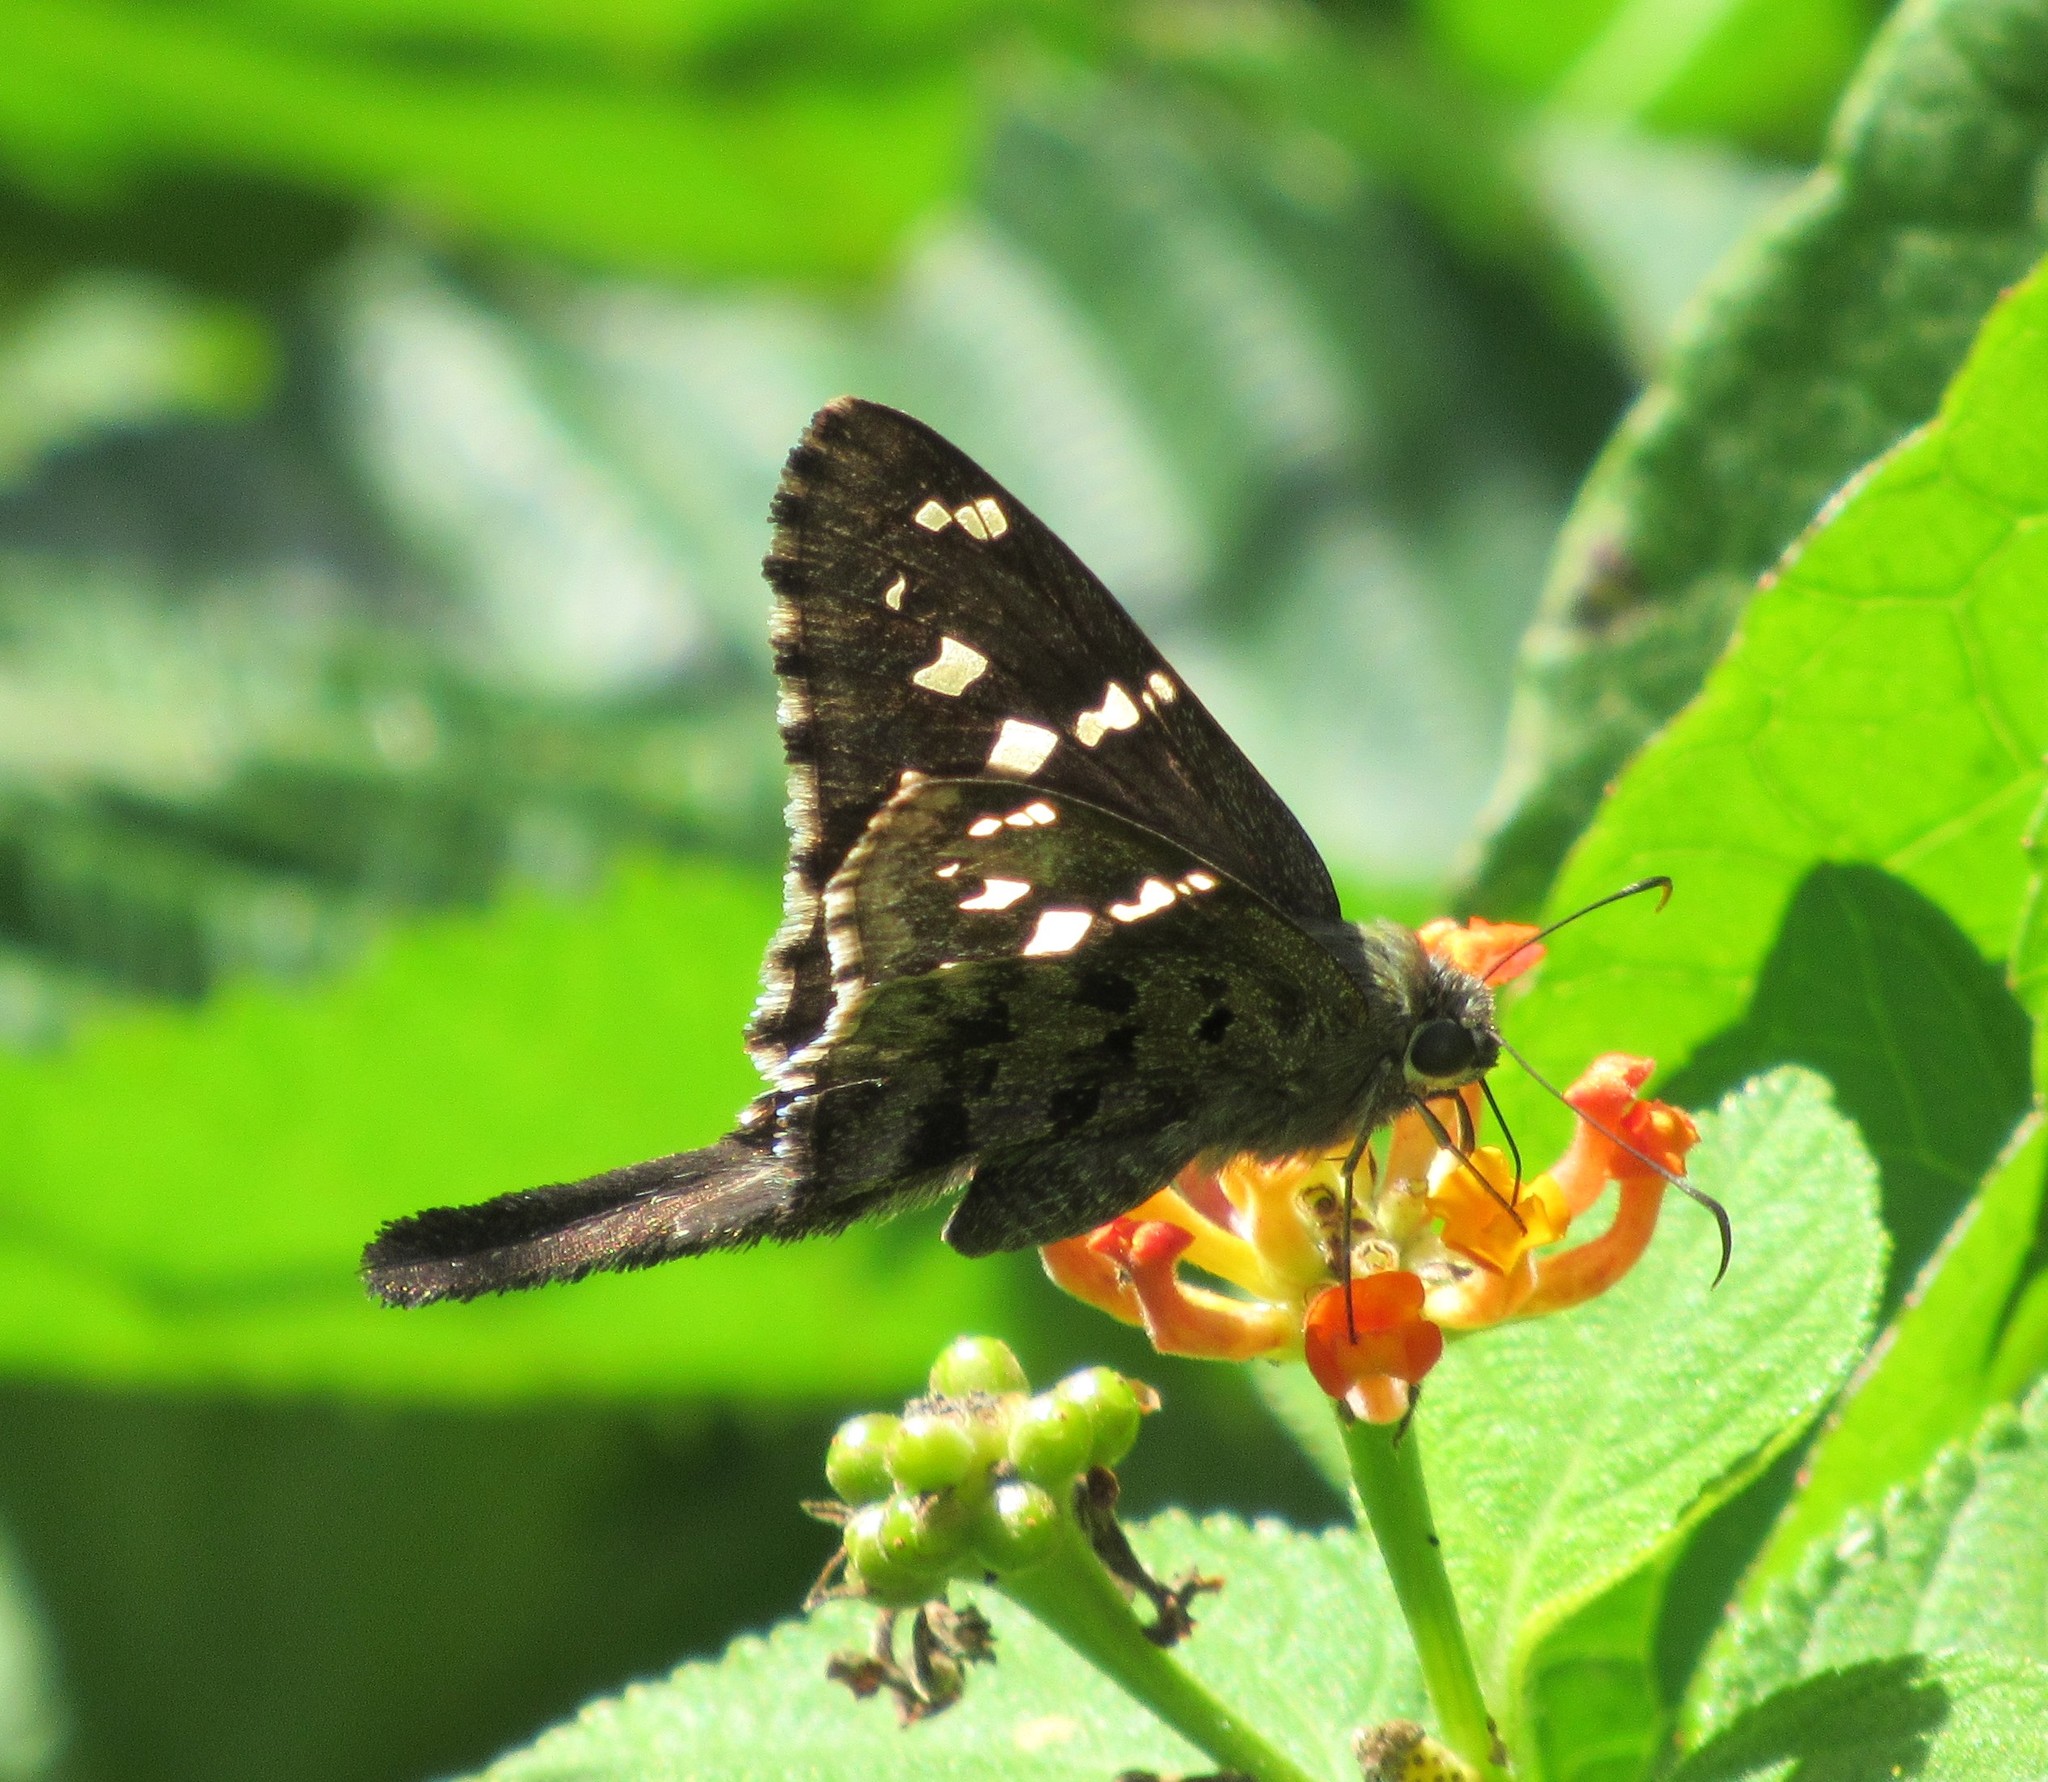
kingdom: Animalia
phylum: Arthropoda
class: Insecta
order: Lepidoptera
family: Hesperiidae
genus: Thorybes
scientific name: Thorybes
